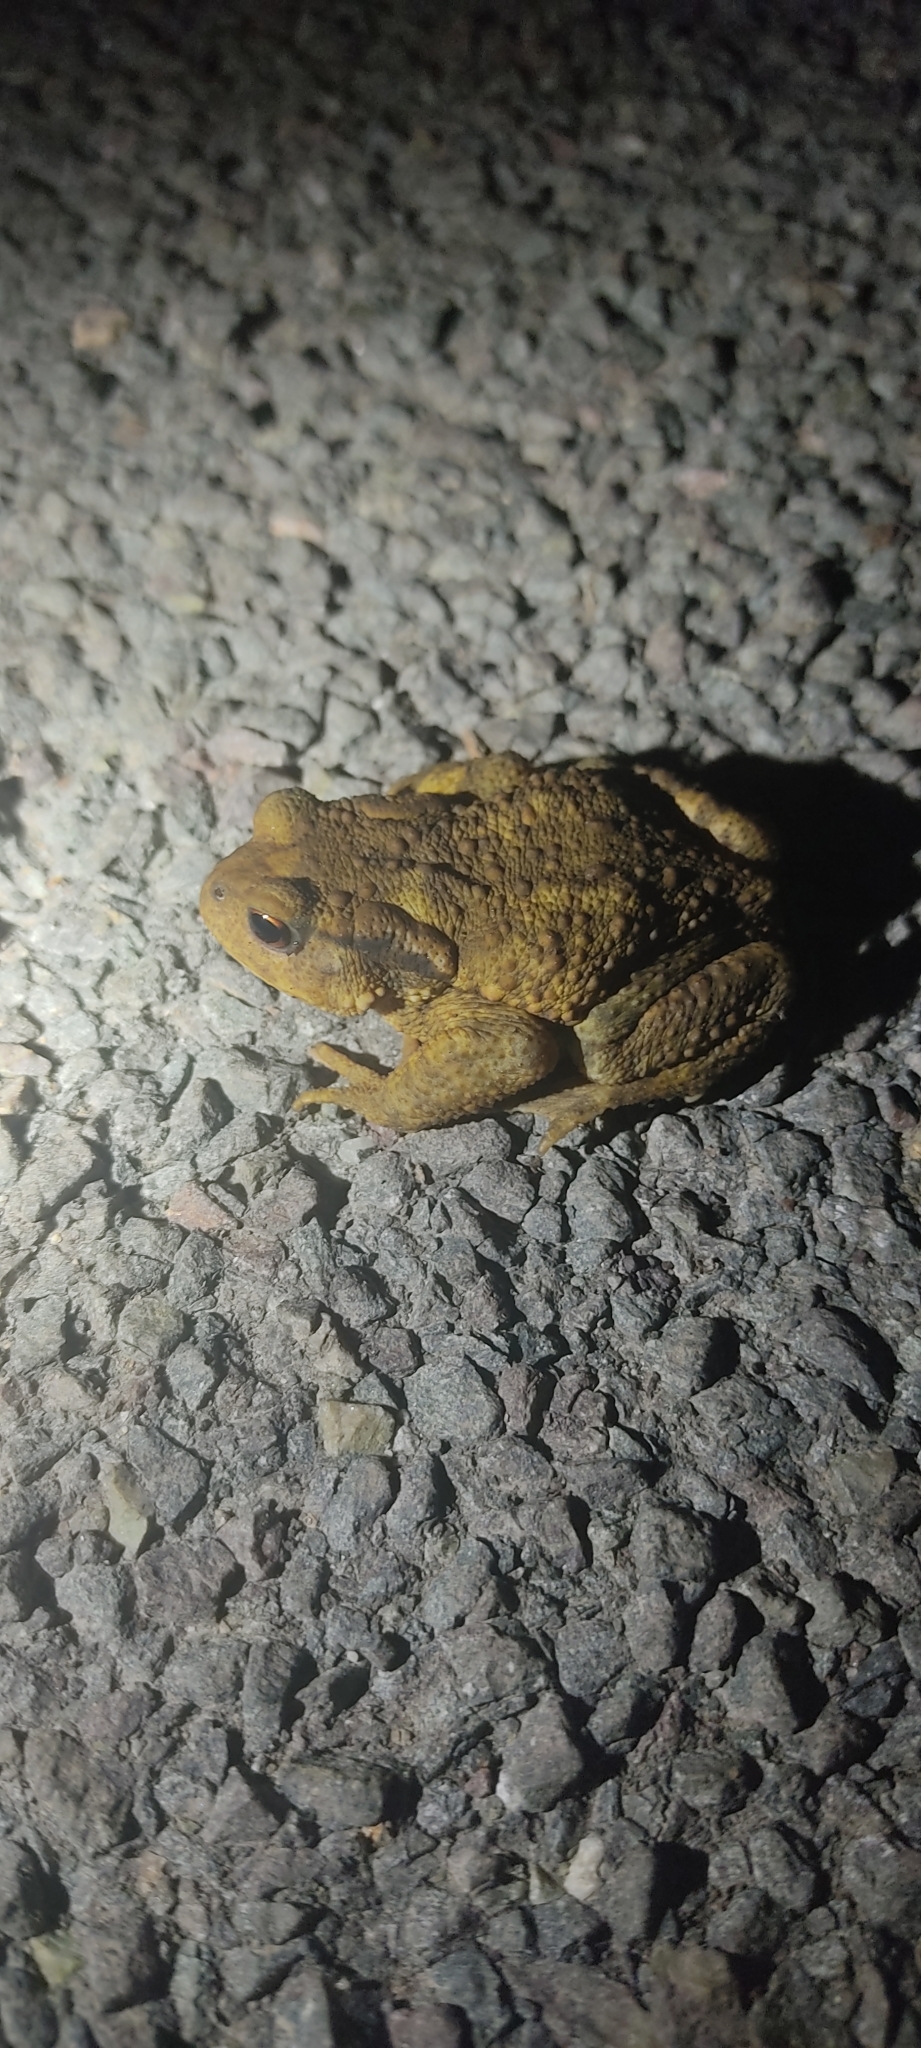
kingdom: Animalia
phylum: Chordata
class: Amphibia
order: Anura
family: Bufonidae
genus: Bufo
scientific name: Bufo spinosus
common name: Western common toad
